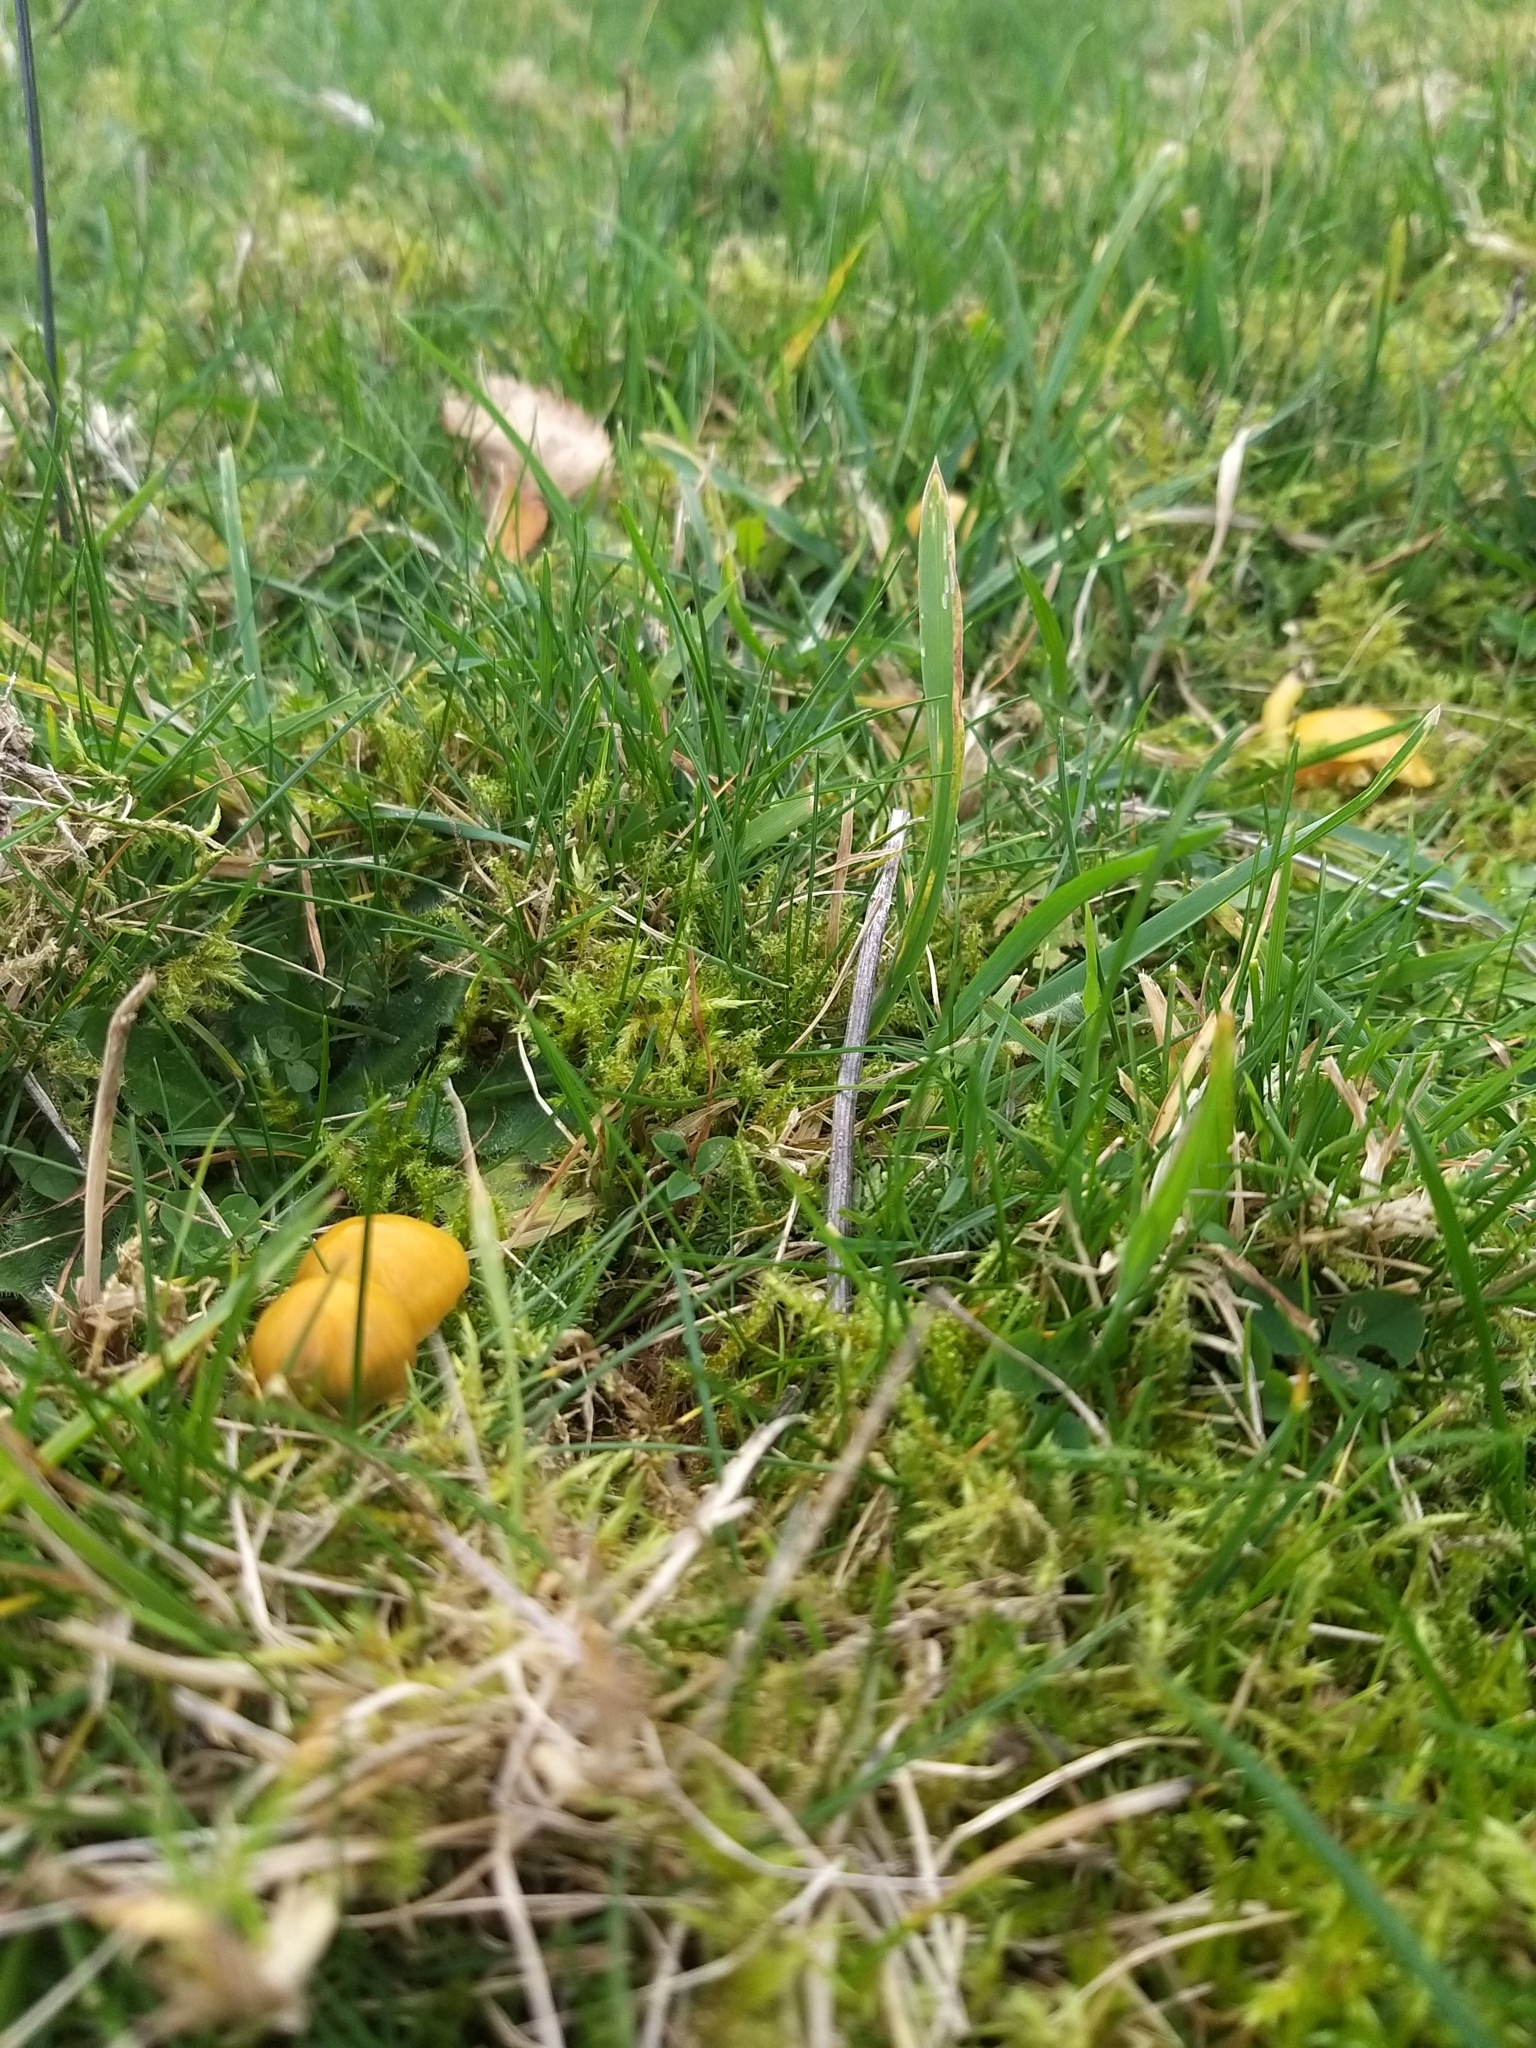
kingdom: Fungi
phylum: Basidiomycota
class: Agaricomycetes
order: Agaricales
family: Hygrophoraceae
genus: Gliophorus
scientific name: Gliophorus psittacinus
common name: Parrot wax-cap
